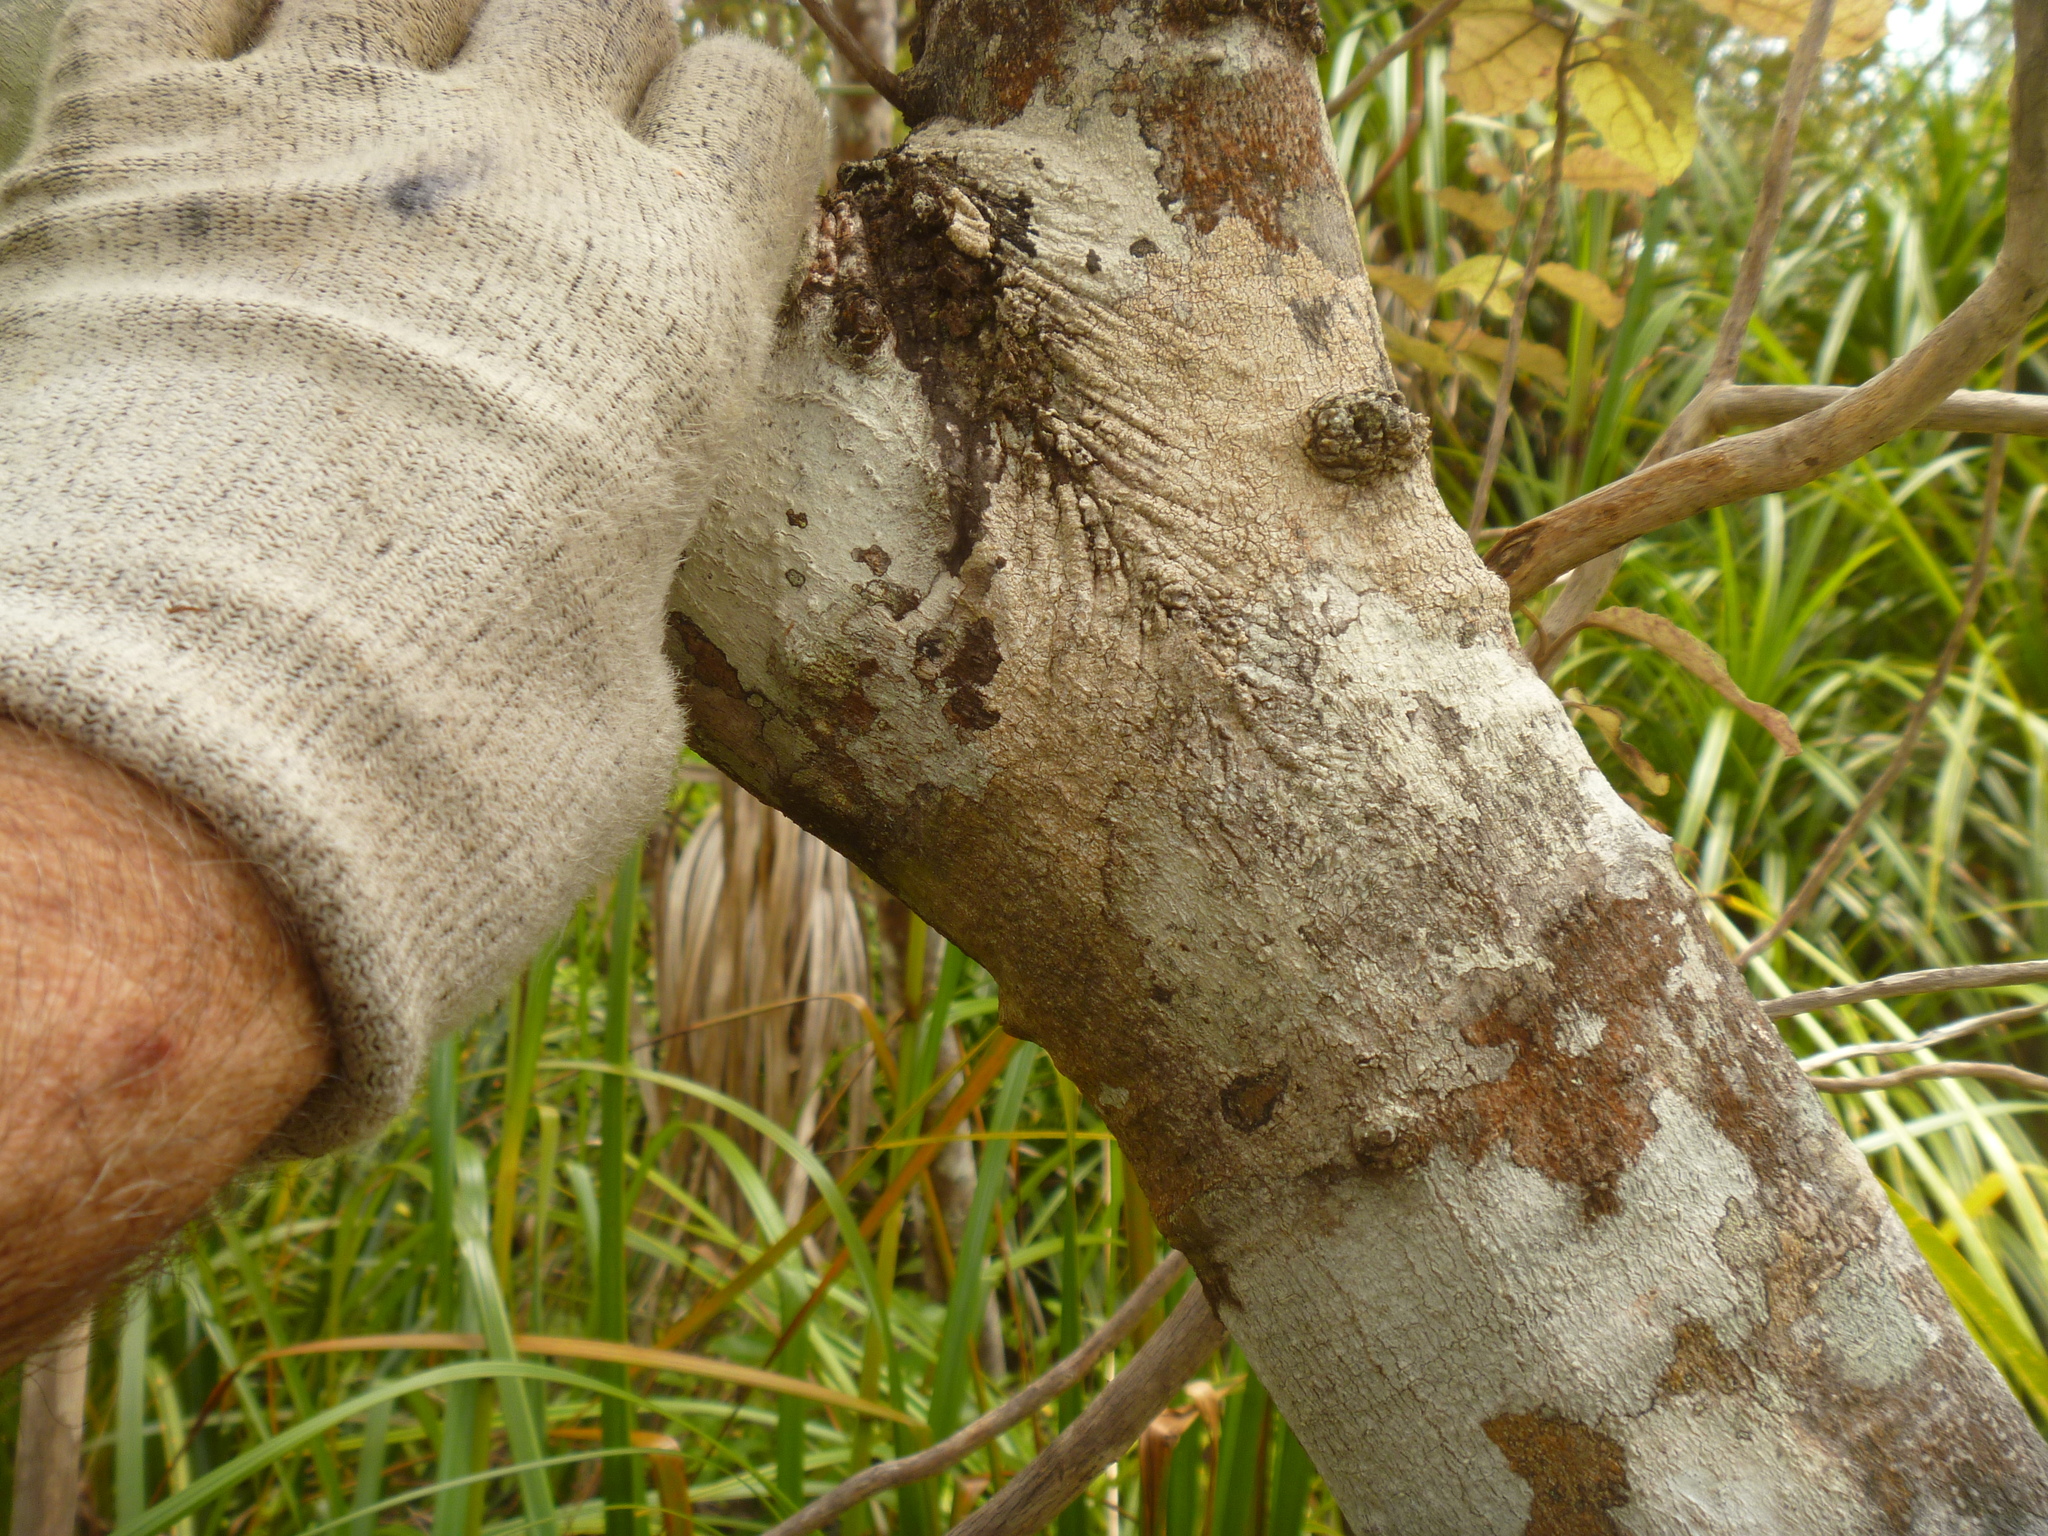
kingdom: Plantae
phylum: Tracheophyta
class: Magnoliopsida
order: Crossosomatales
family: Ixerbaceae
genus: Ixerba
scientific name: Ixerba brexioides
